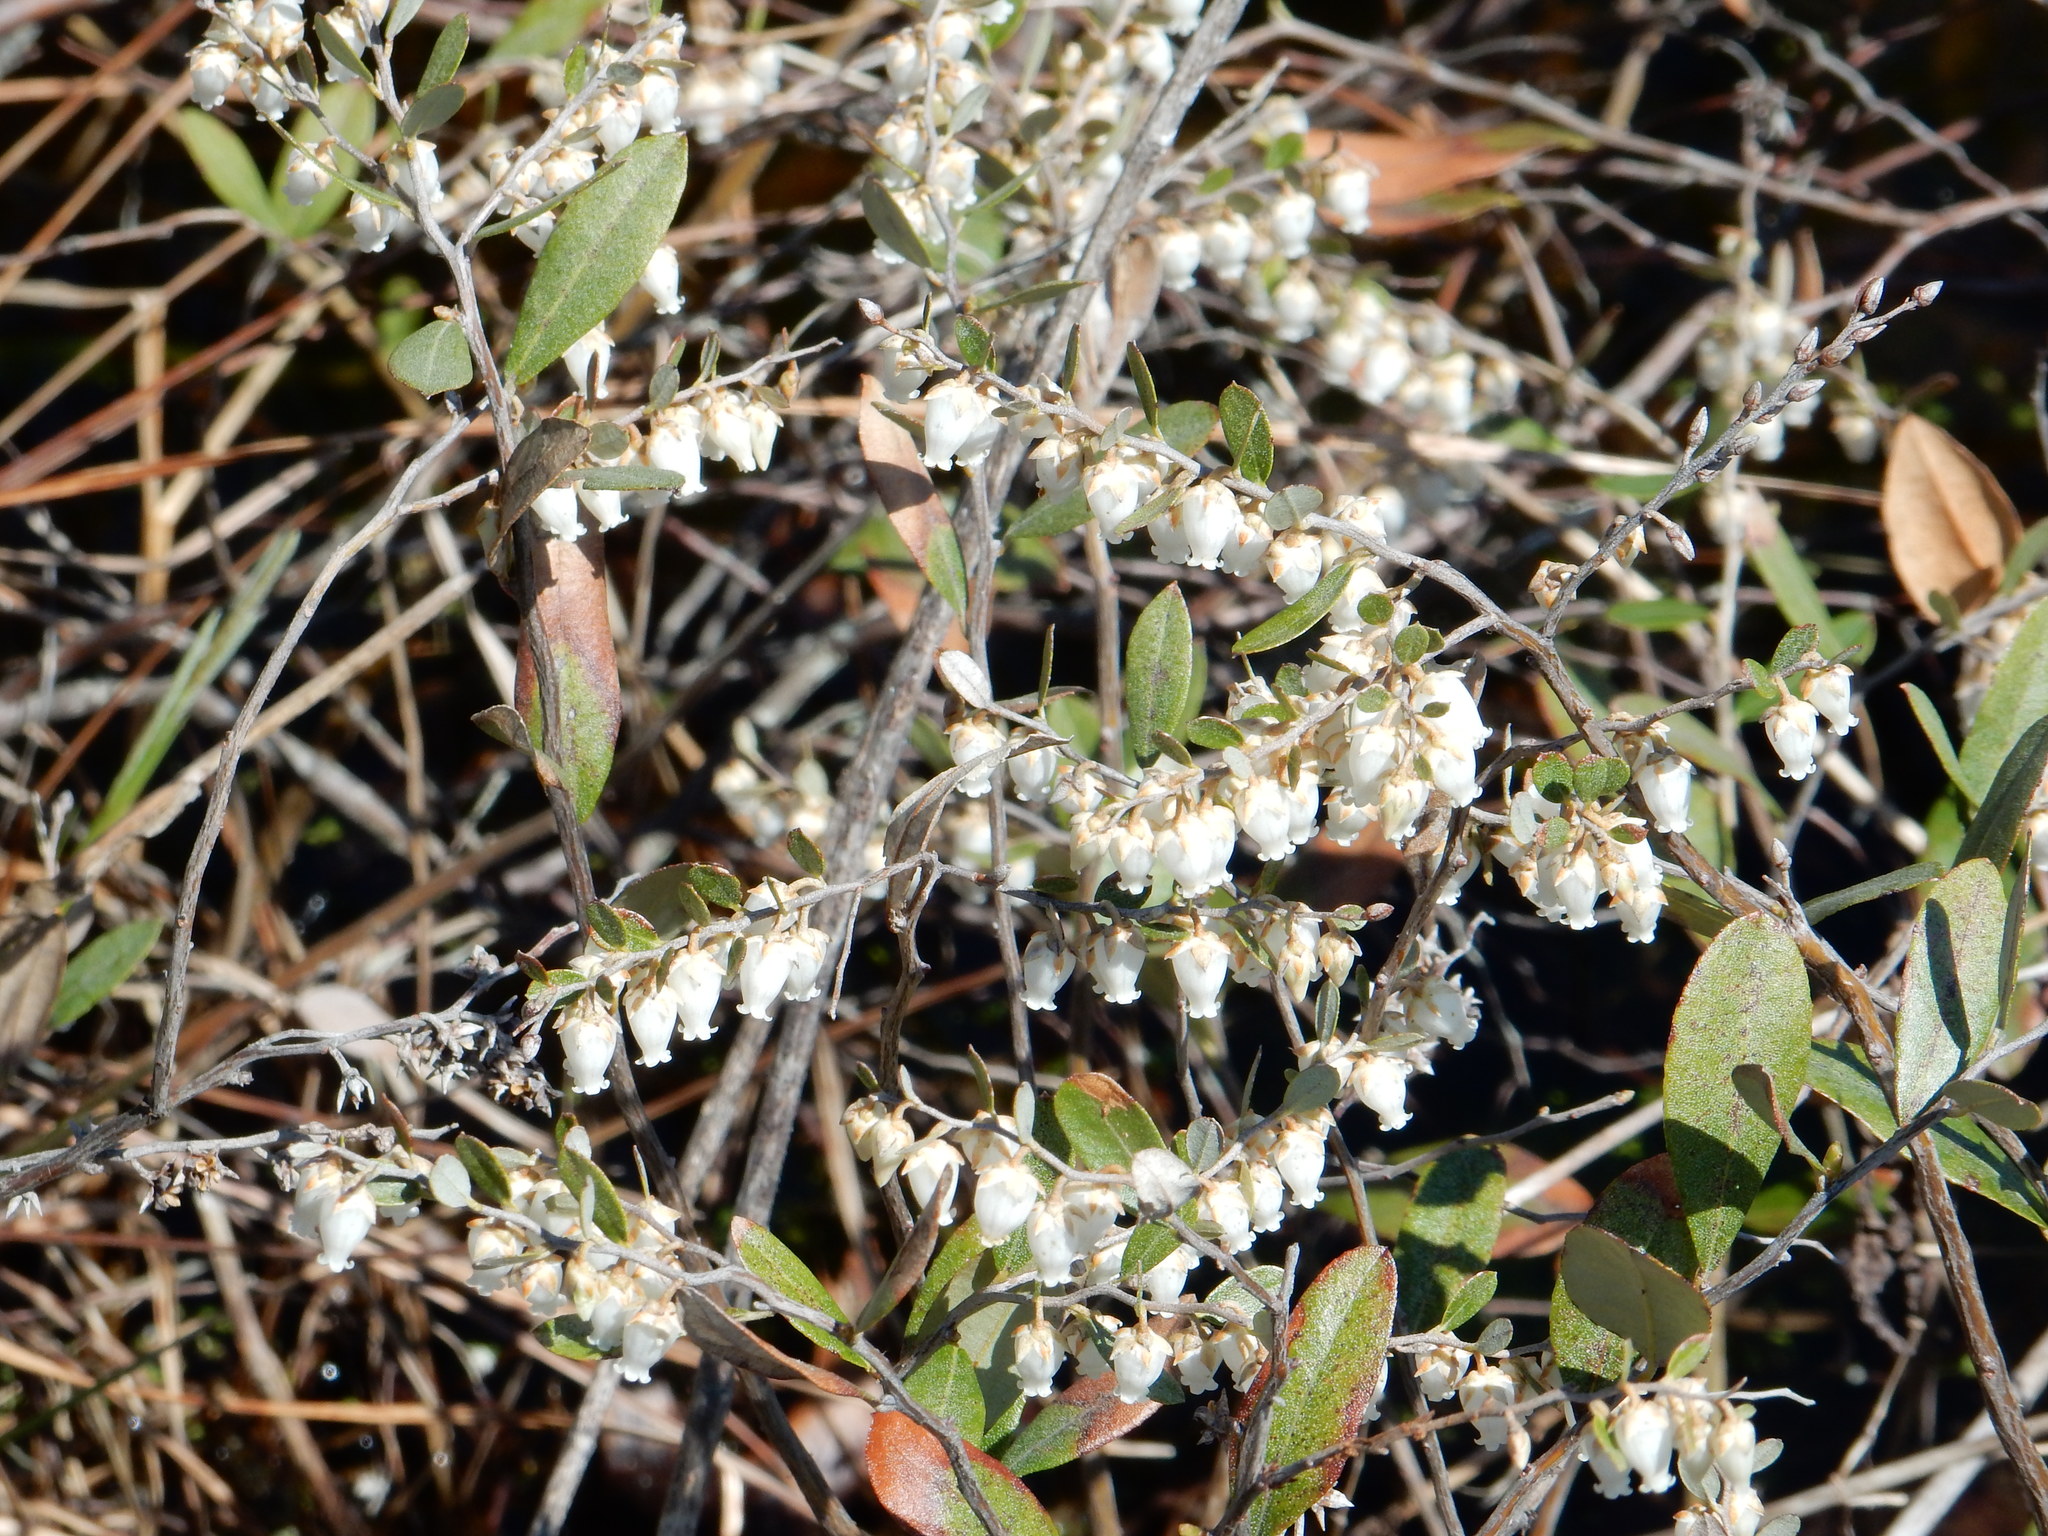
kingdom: Plantae
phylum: Tracheophyta
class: Magnoliopsida
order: Ericales
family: Ericaceae
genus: Chamaedaphne
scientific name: Chamaedaphne calyculata
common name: Leatherleaf
